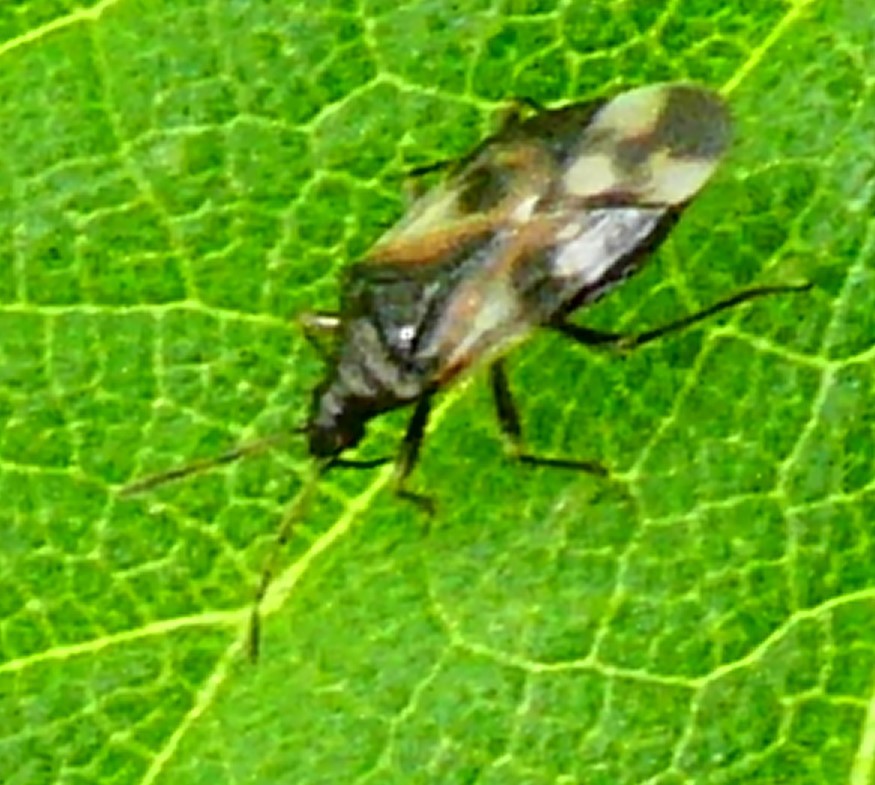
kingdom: Animalia
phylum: Arthropoda
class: Insecta
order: Hemiptera
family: Anthocoridae
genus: Anthocoris
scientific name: Anthocoris nemorum
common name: Minute pirate bug
